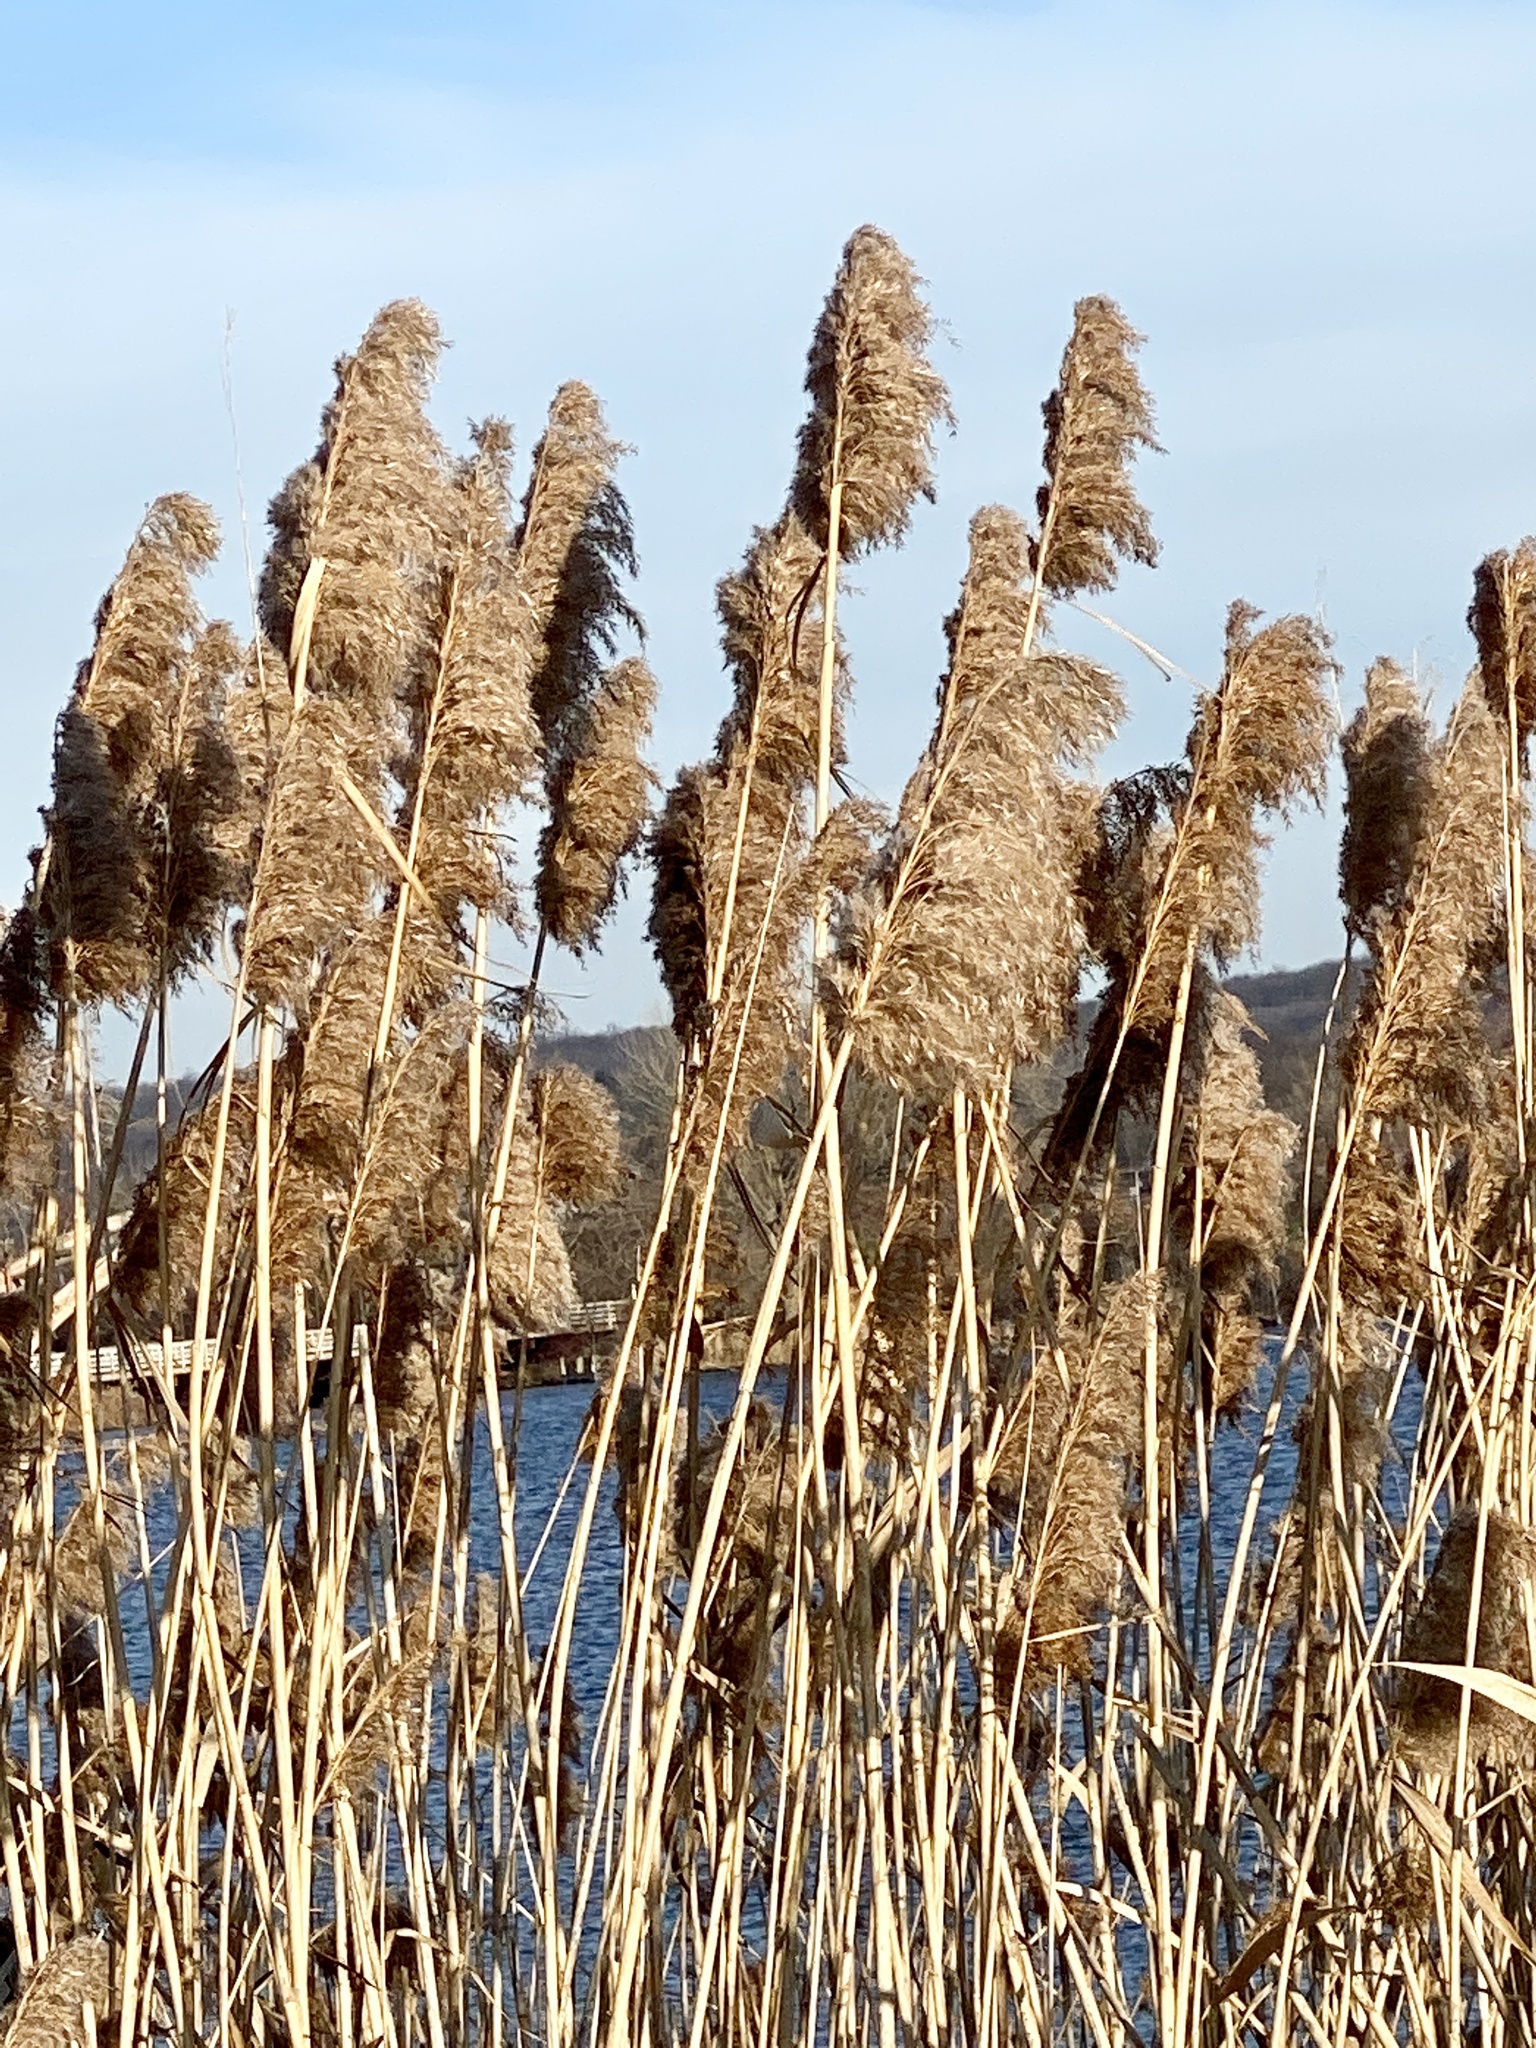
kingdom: Plantae
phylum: Tracheophyta
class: Liliopsida
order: Poales
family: Poaceae
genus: Phragmites
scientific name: Phragmites australis
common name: Common reed
